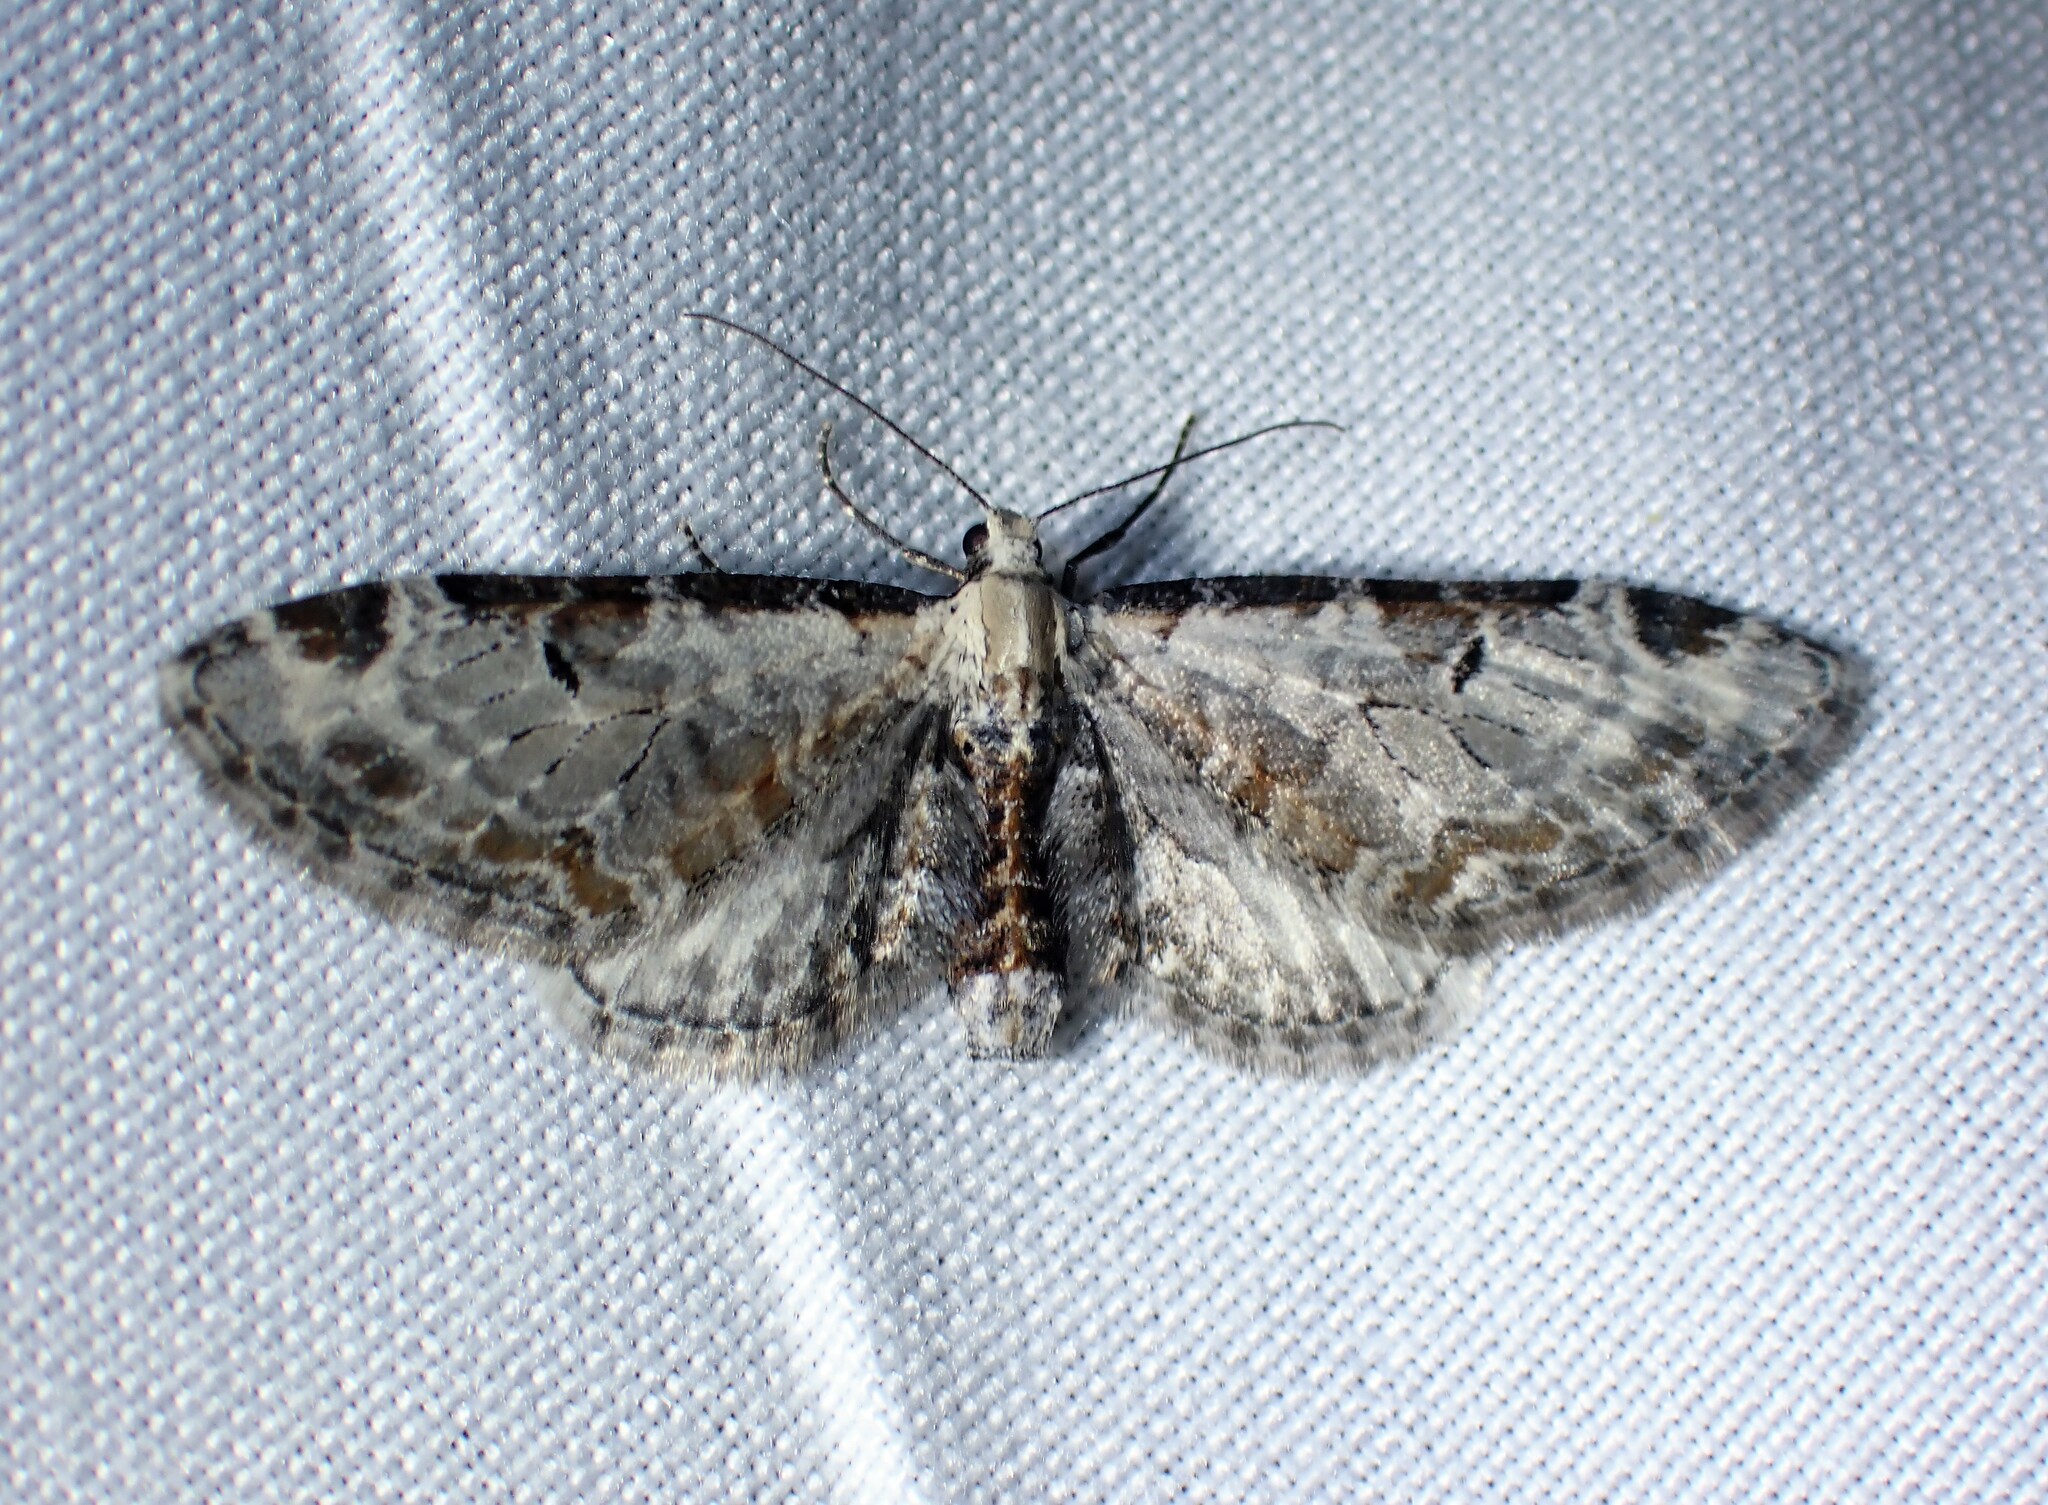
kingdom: Animalia
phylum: Arthropoda
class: Insecta
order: Lepidoptera
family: Geometridae
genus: Eupithecia
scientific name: Eupithecia ravocostaliata
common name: Great varigated pug
